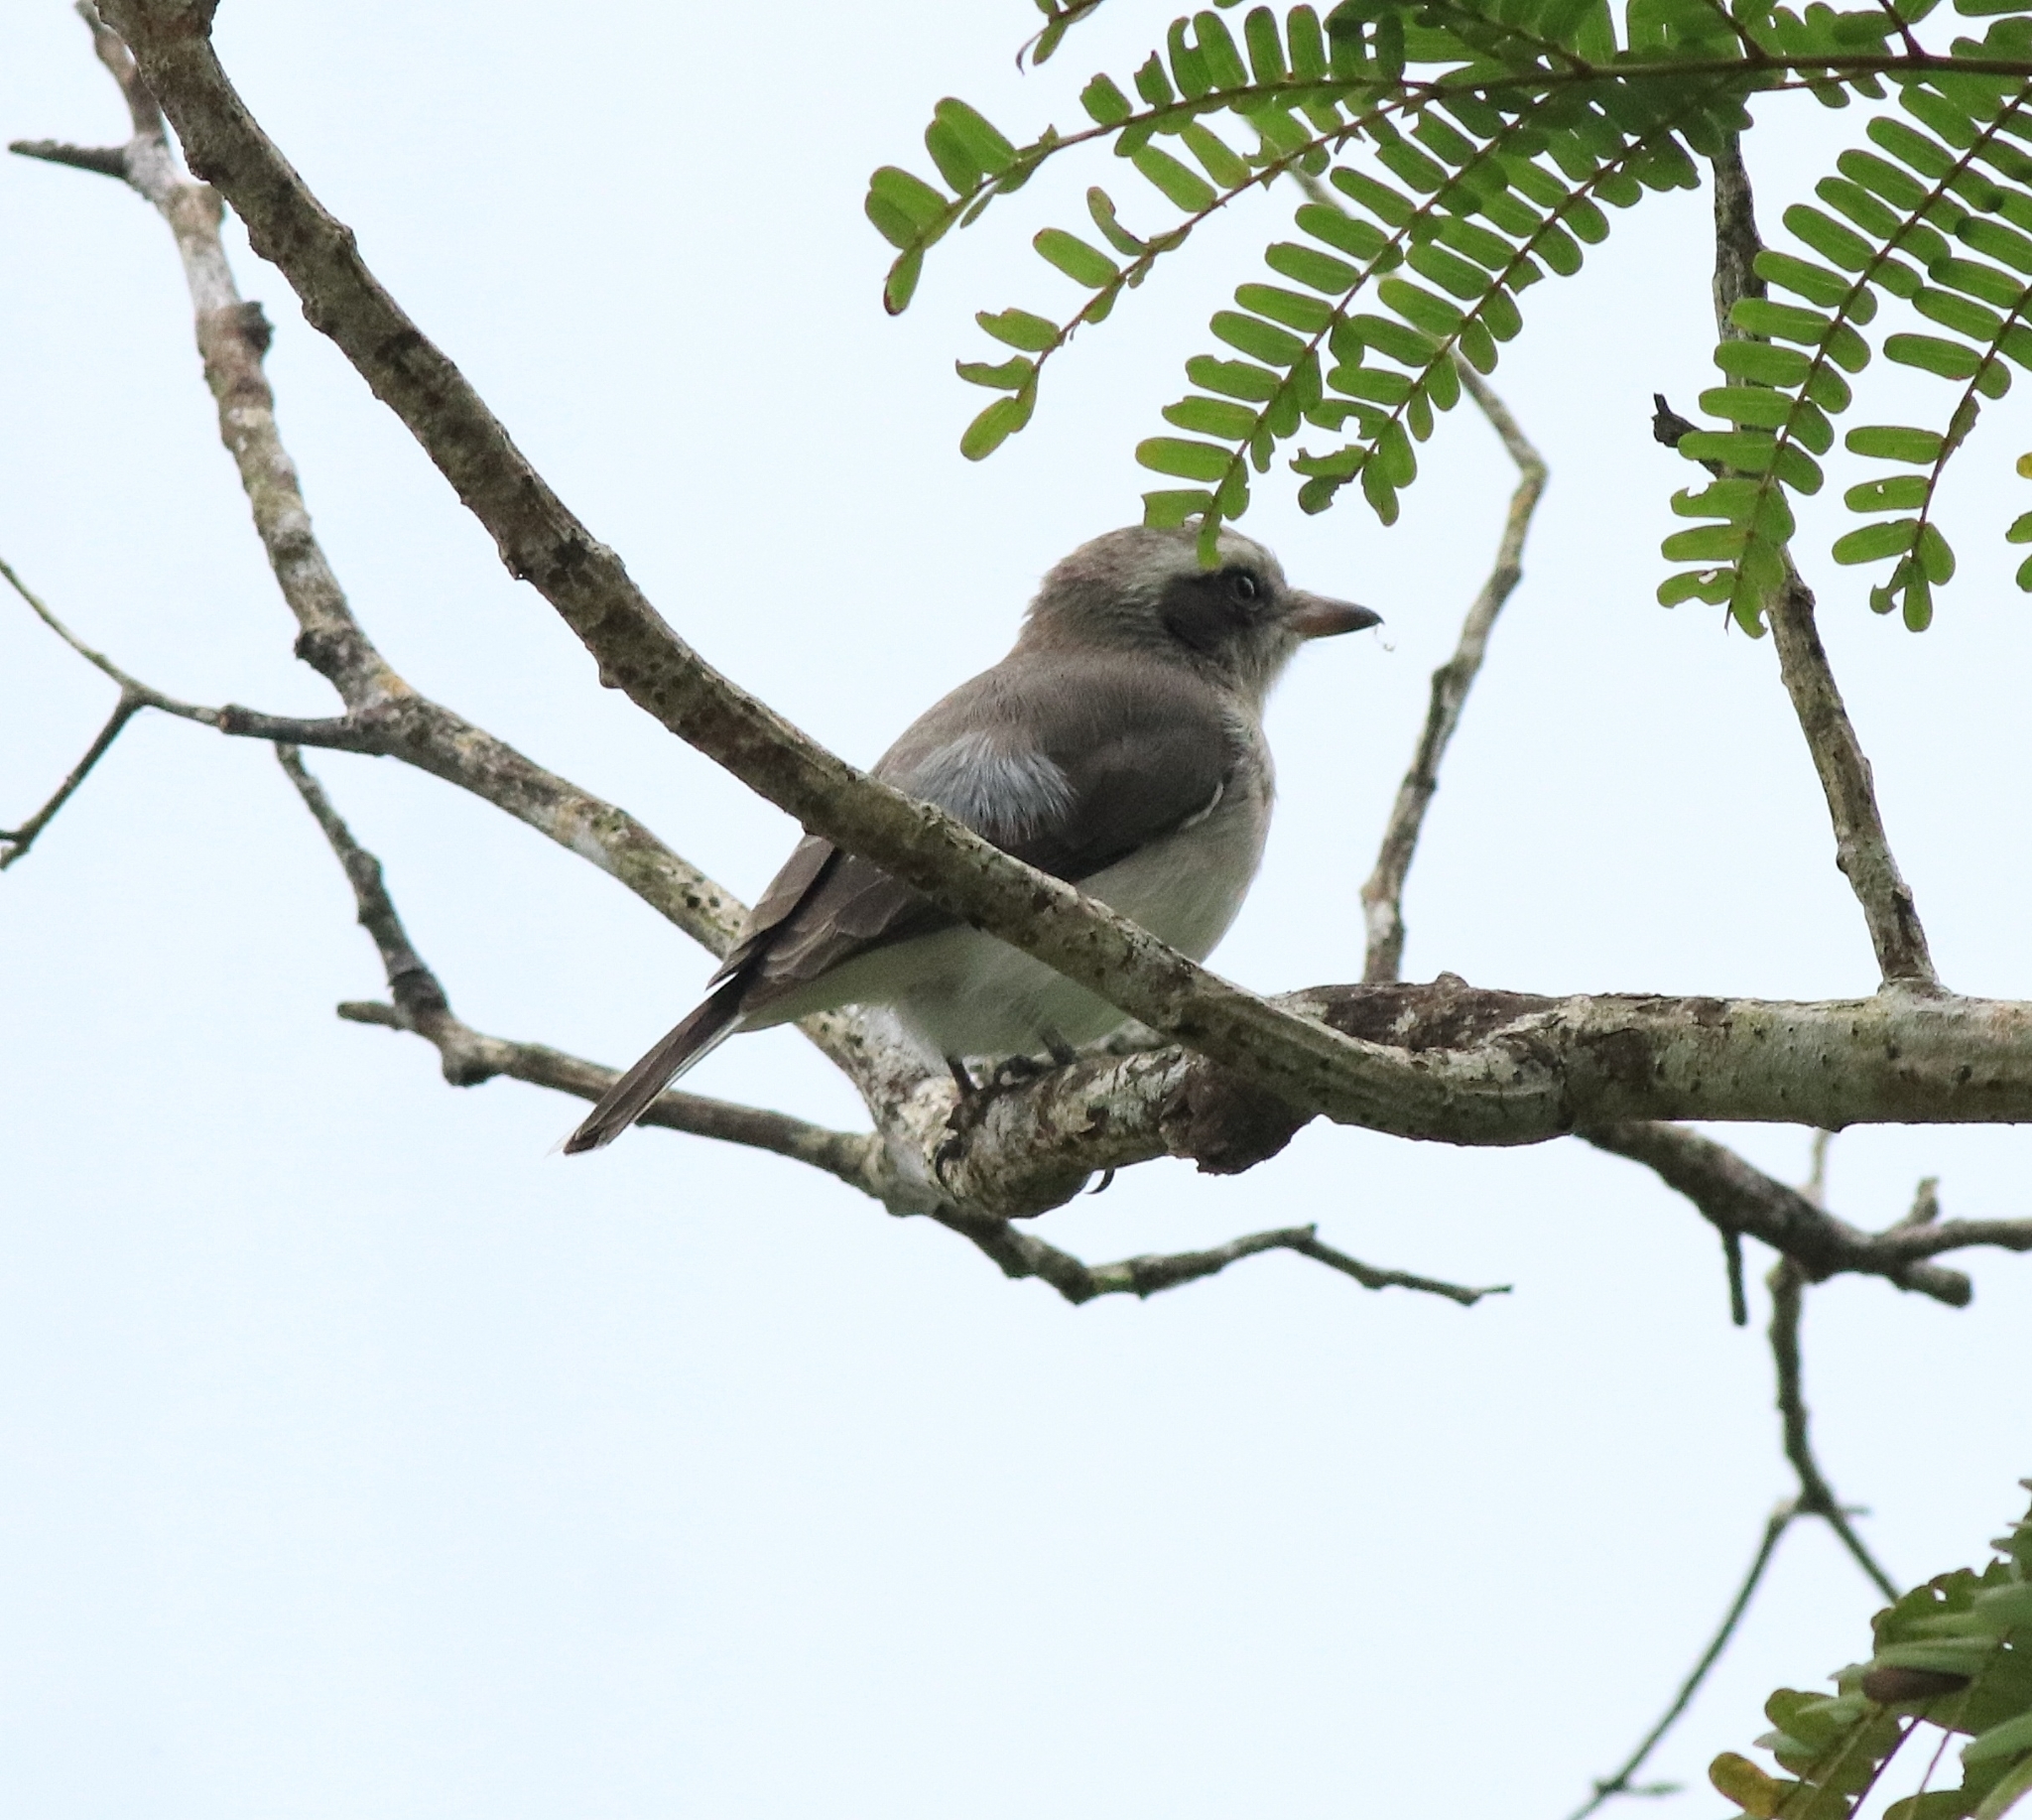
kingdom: Animalia
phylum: Chordata
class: Aves
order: Passeriformes
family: Tephrodornithidae
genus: Tephrodornis
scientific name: Tephrodornis pondicerianus
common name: Common woodshrike
